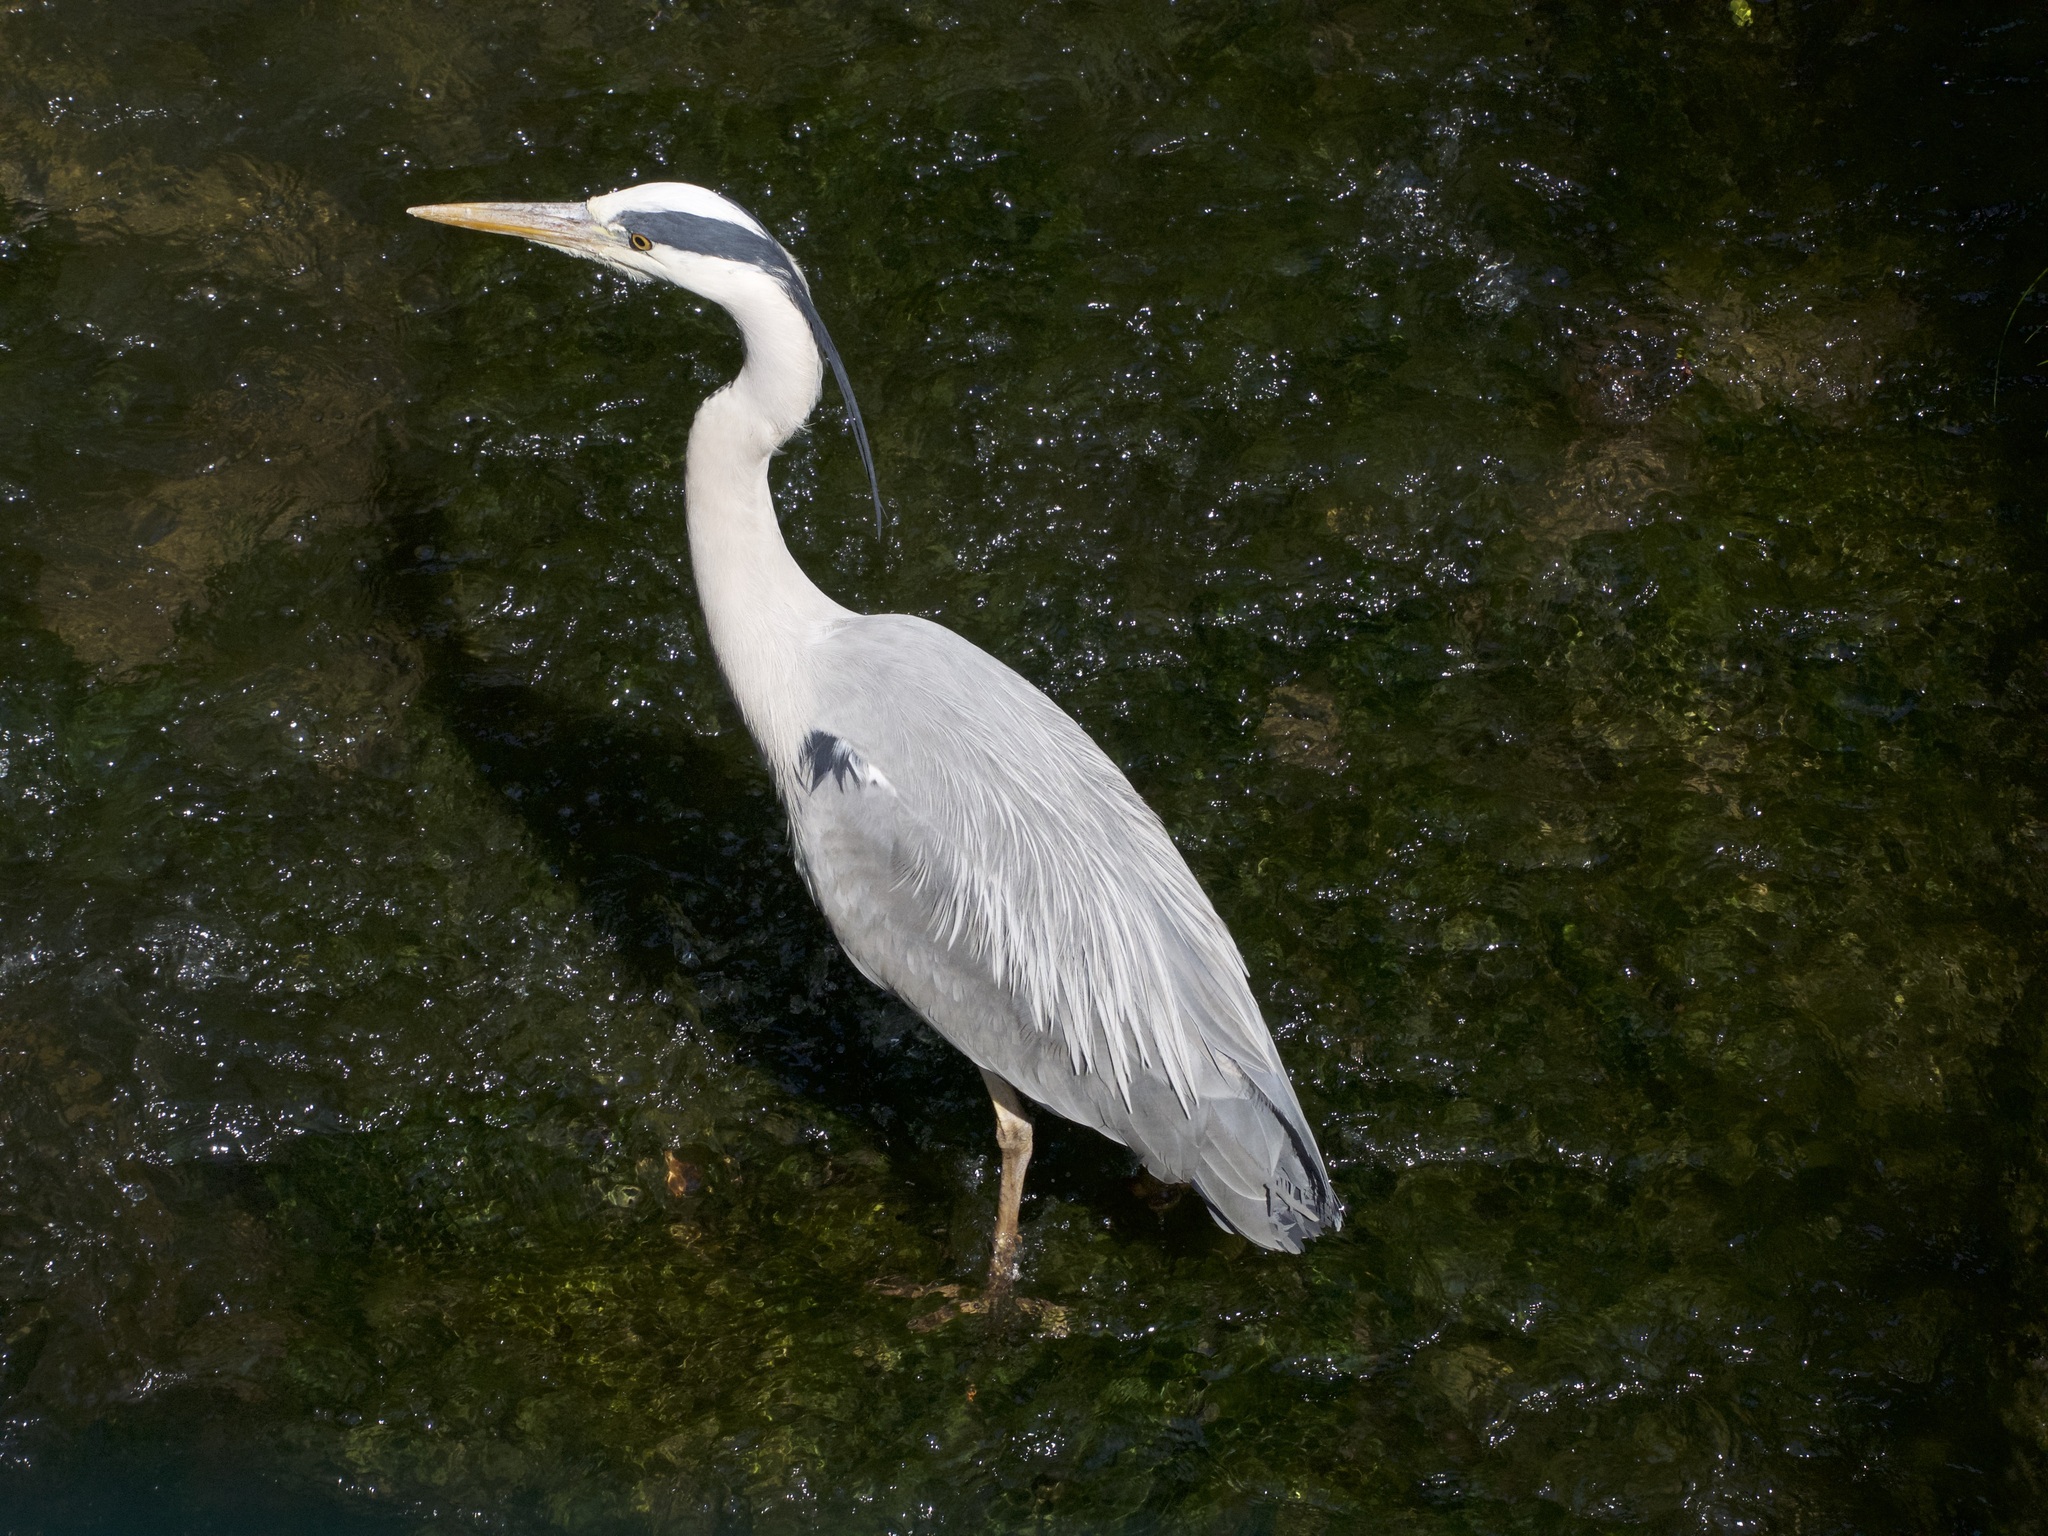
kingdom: Animalia
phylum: Chordata
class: Aves
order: Pelecaniformes
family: Ardeidae
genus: Ardea
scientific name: Ardea cinerea
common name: Grey heron
